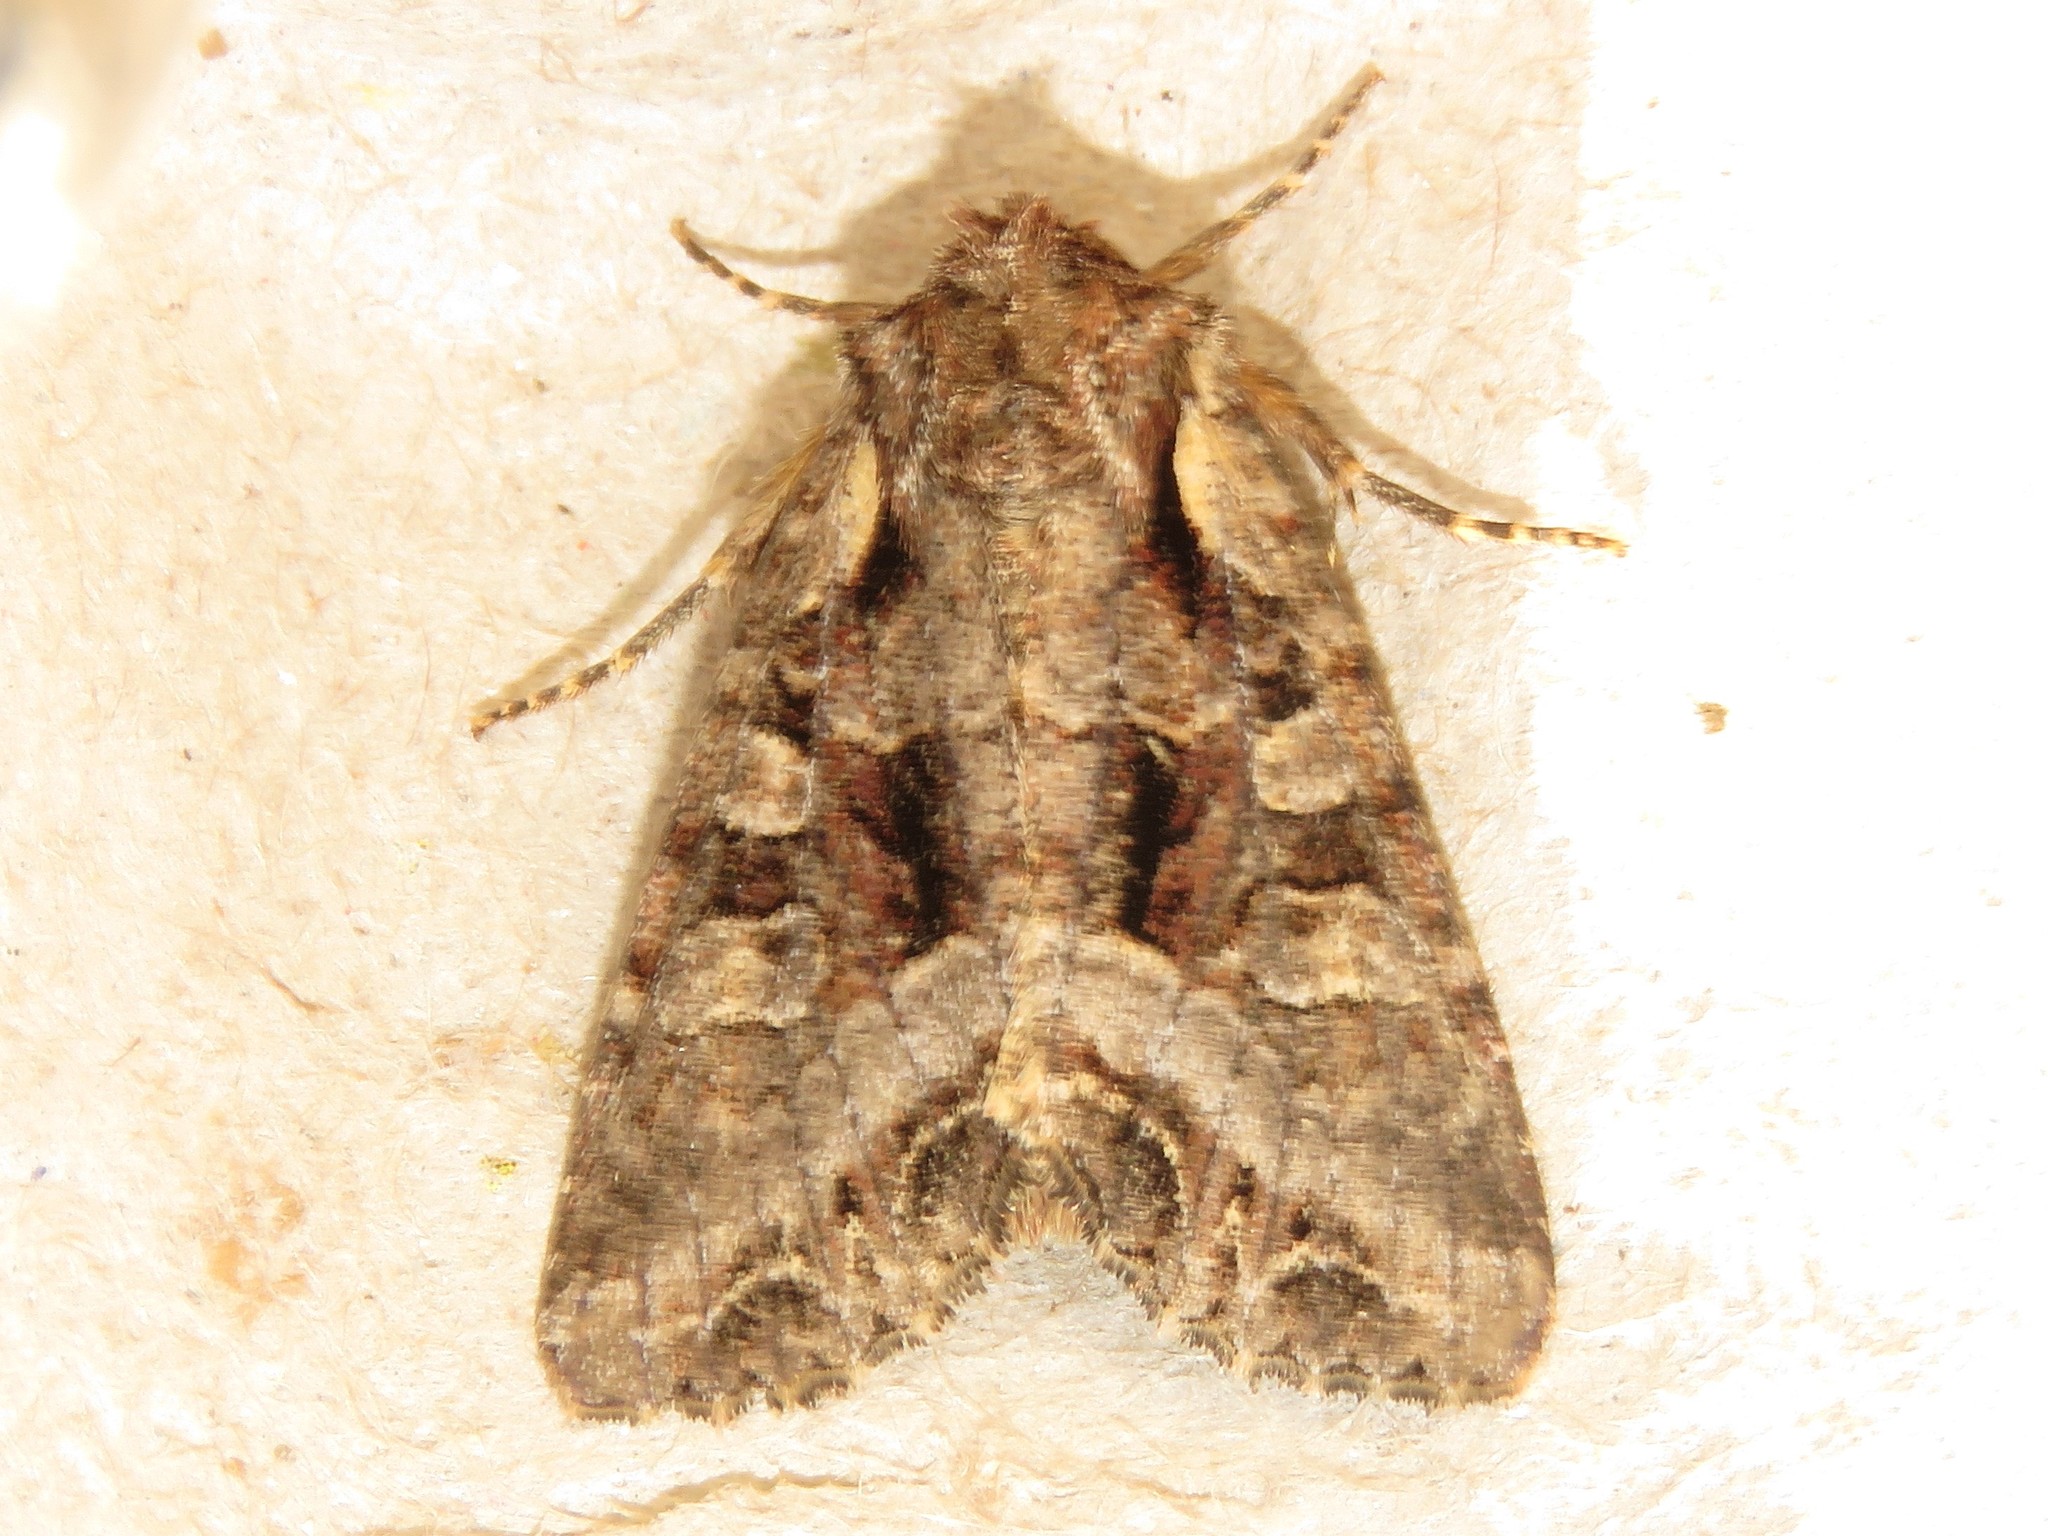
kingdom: Animalia
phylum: Arthropoda
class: Insecta
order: Lepidoptera
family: Noctuidae
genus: Lacanobia
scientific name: Lacanobia grandis
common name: Grand arches moth
